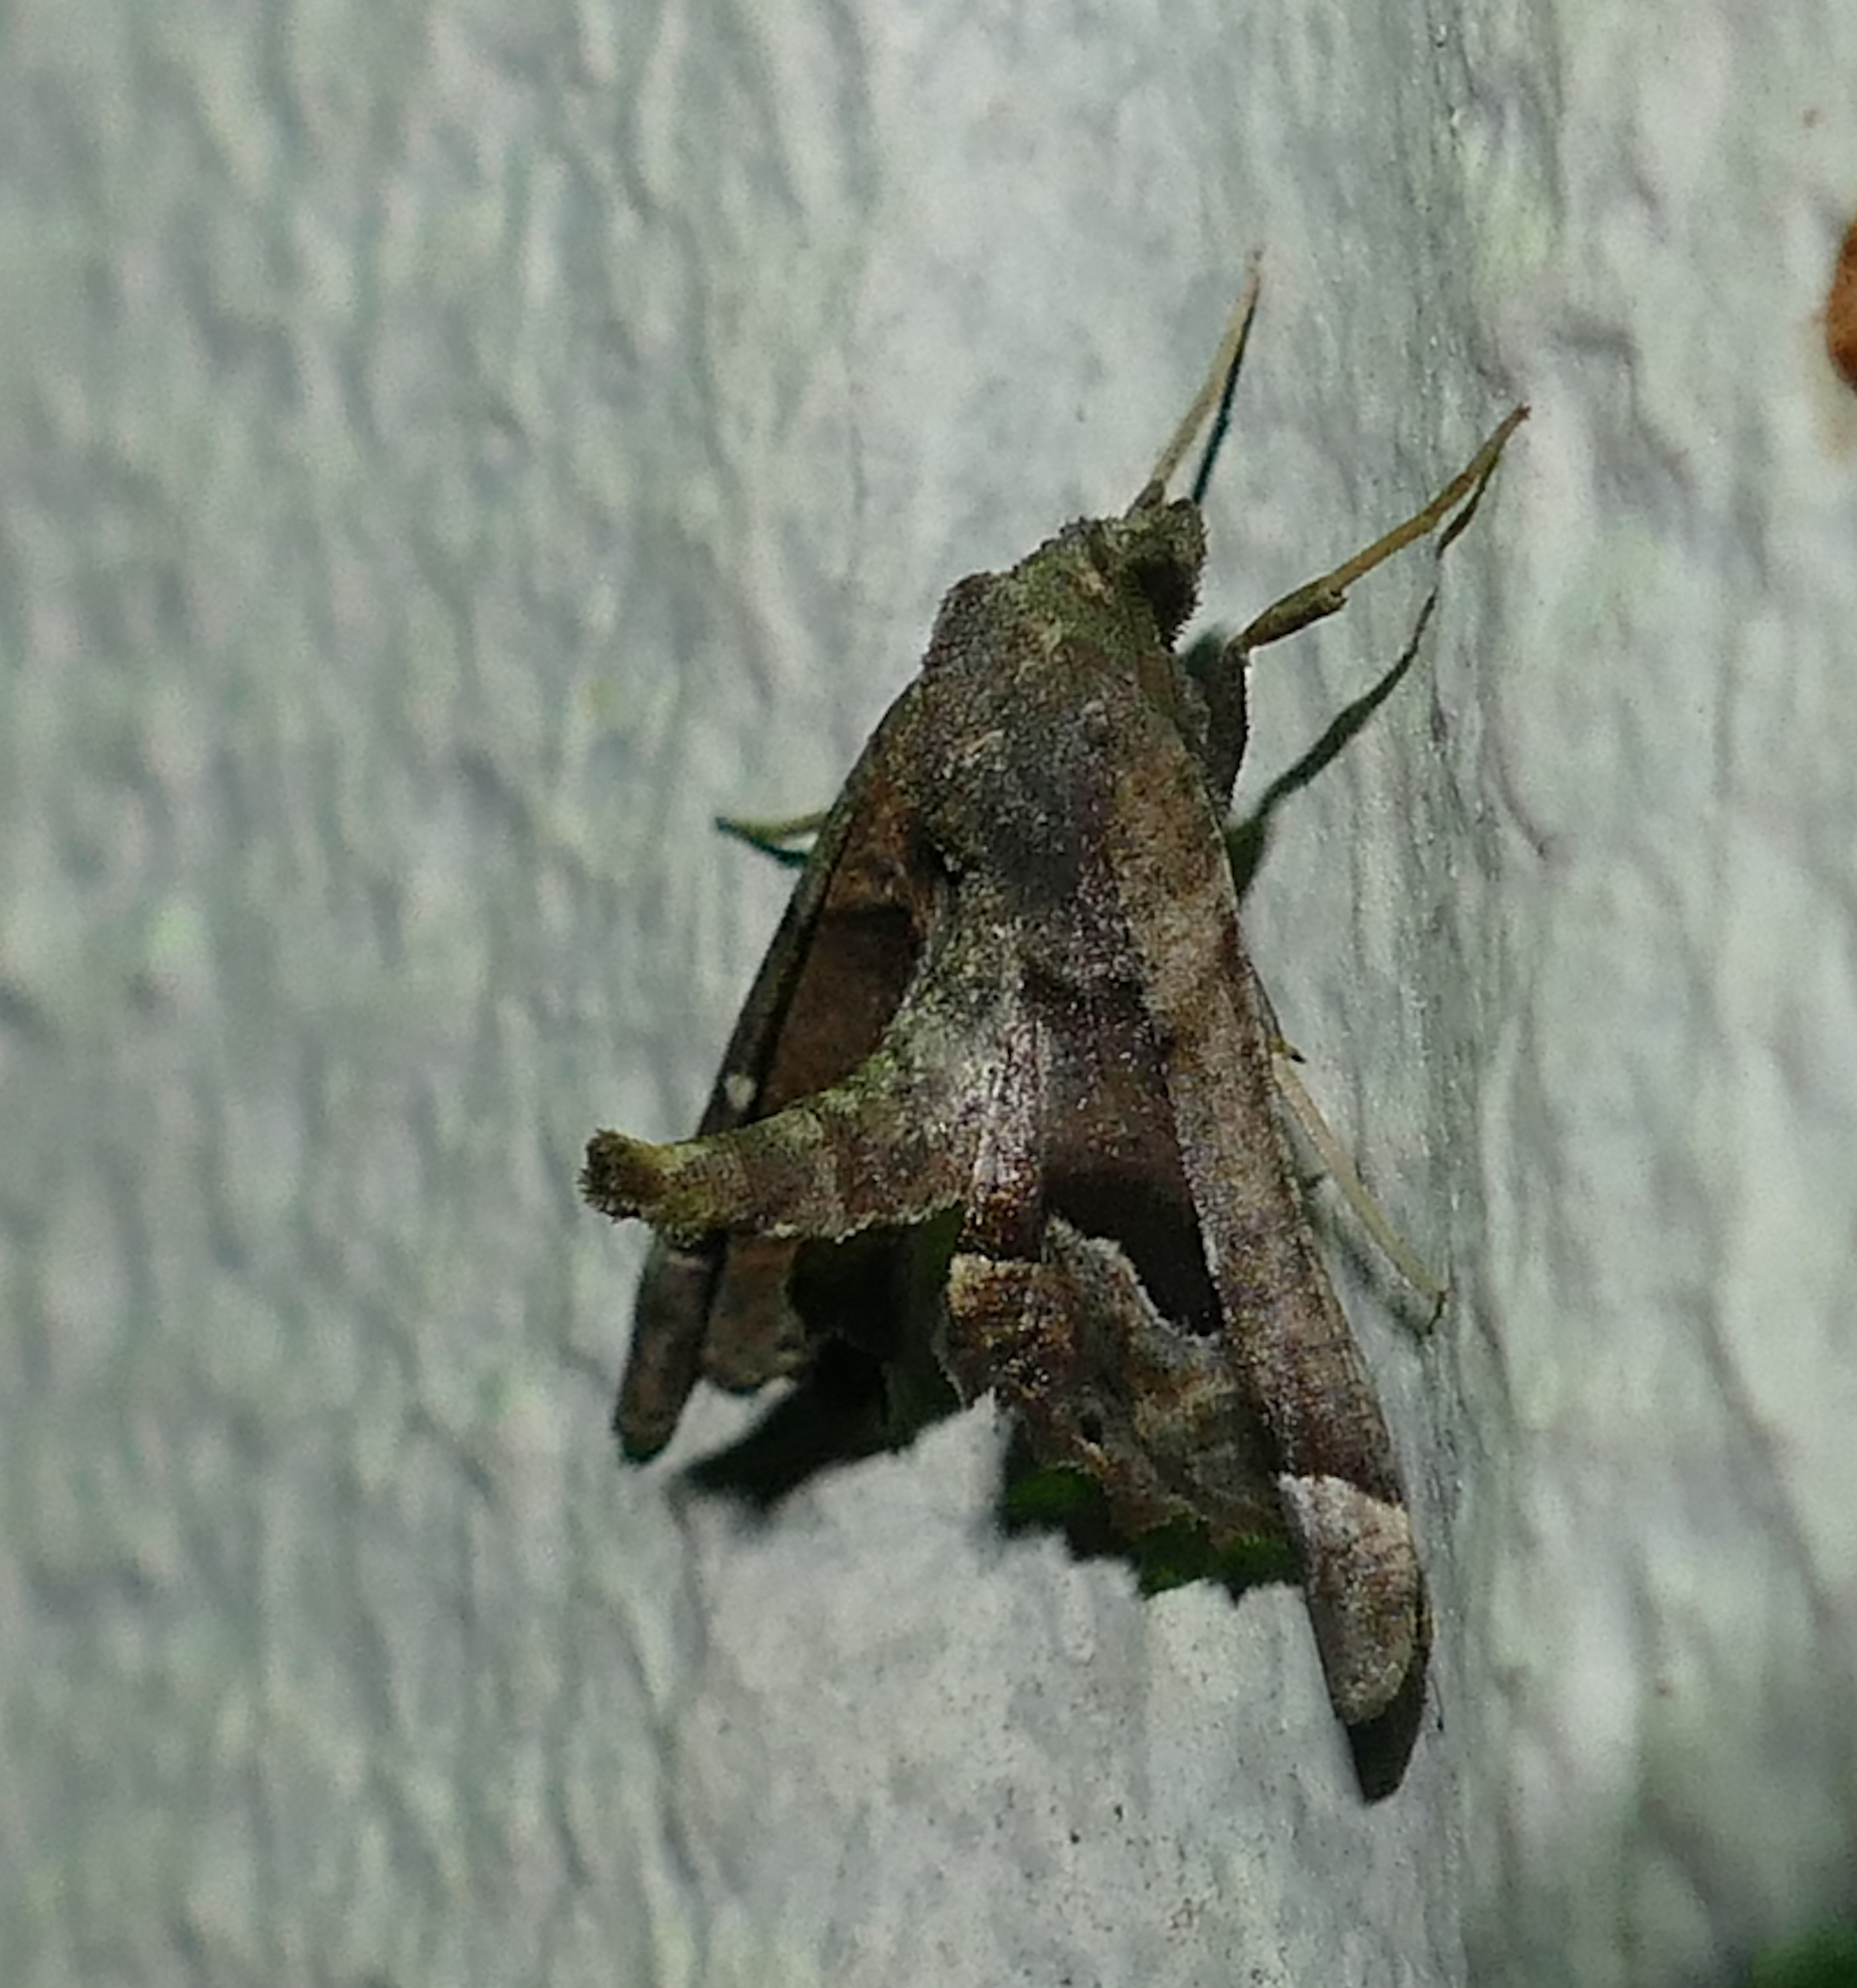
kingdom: Animalia
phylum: Arthropoda
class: Insecta
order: Lepidoptera
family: Geometridae
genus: Pero
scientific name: Pero meskaria
